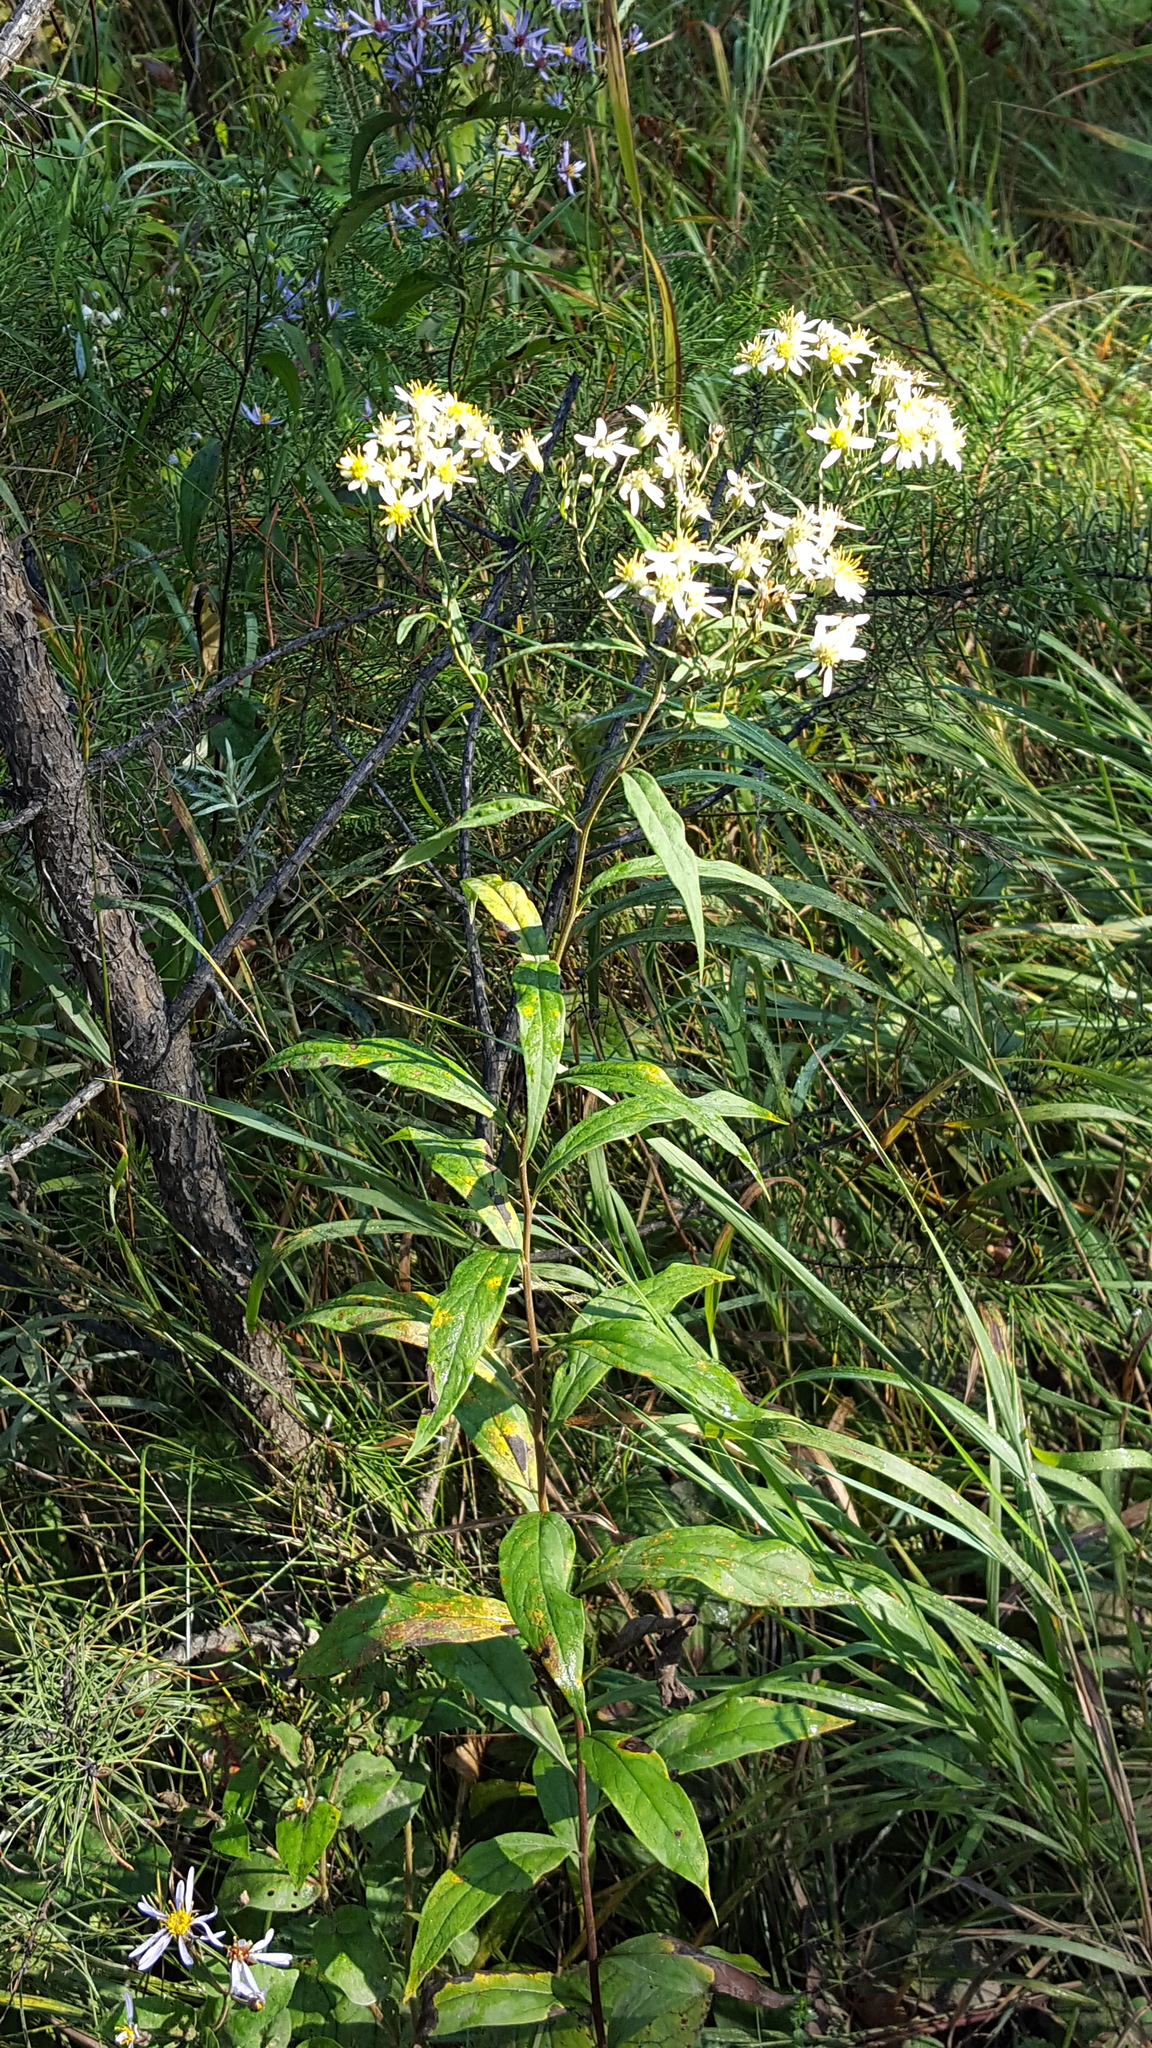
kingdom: Plantae
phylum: Tracheophyta
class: Magnoliopsida
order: Asterales
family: Asteraceae
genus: Doellingeria
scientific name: Doellingeria umbellata
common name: Flat-top white aster
